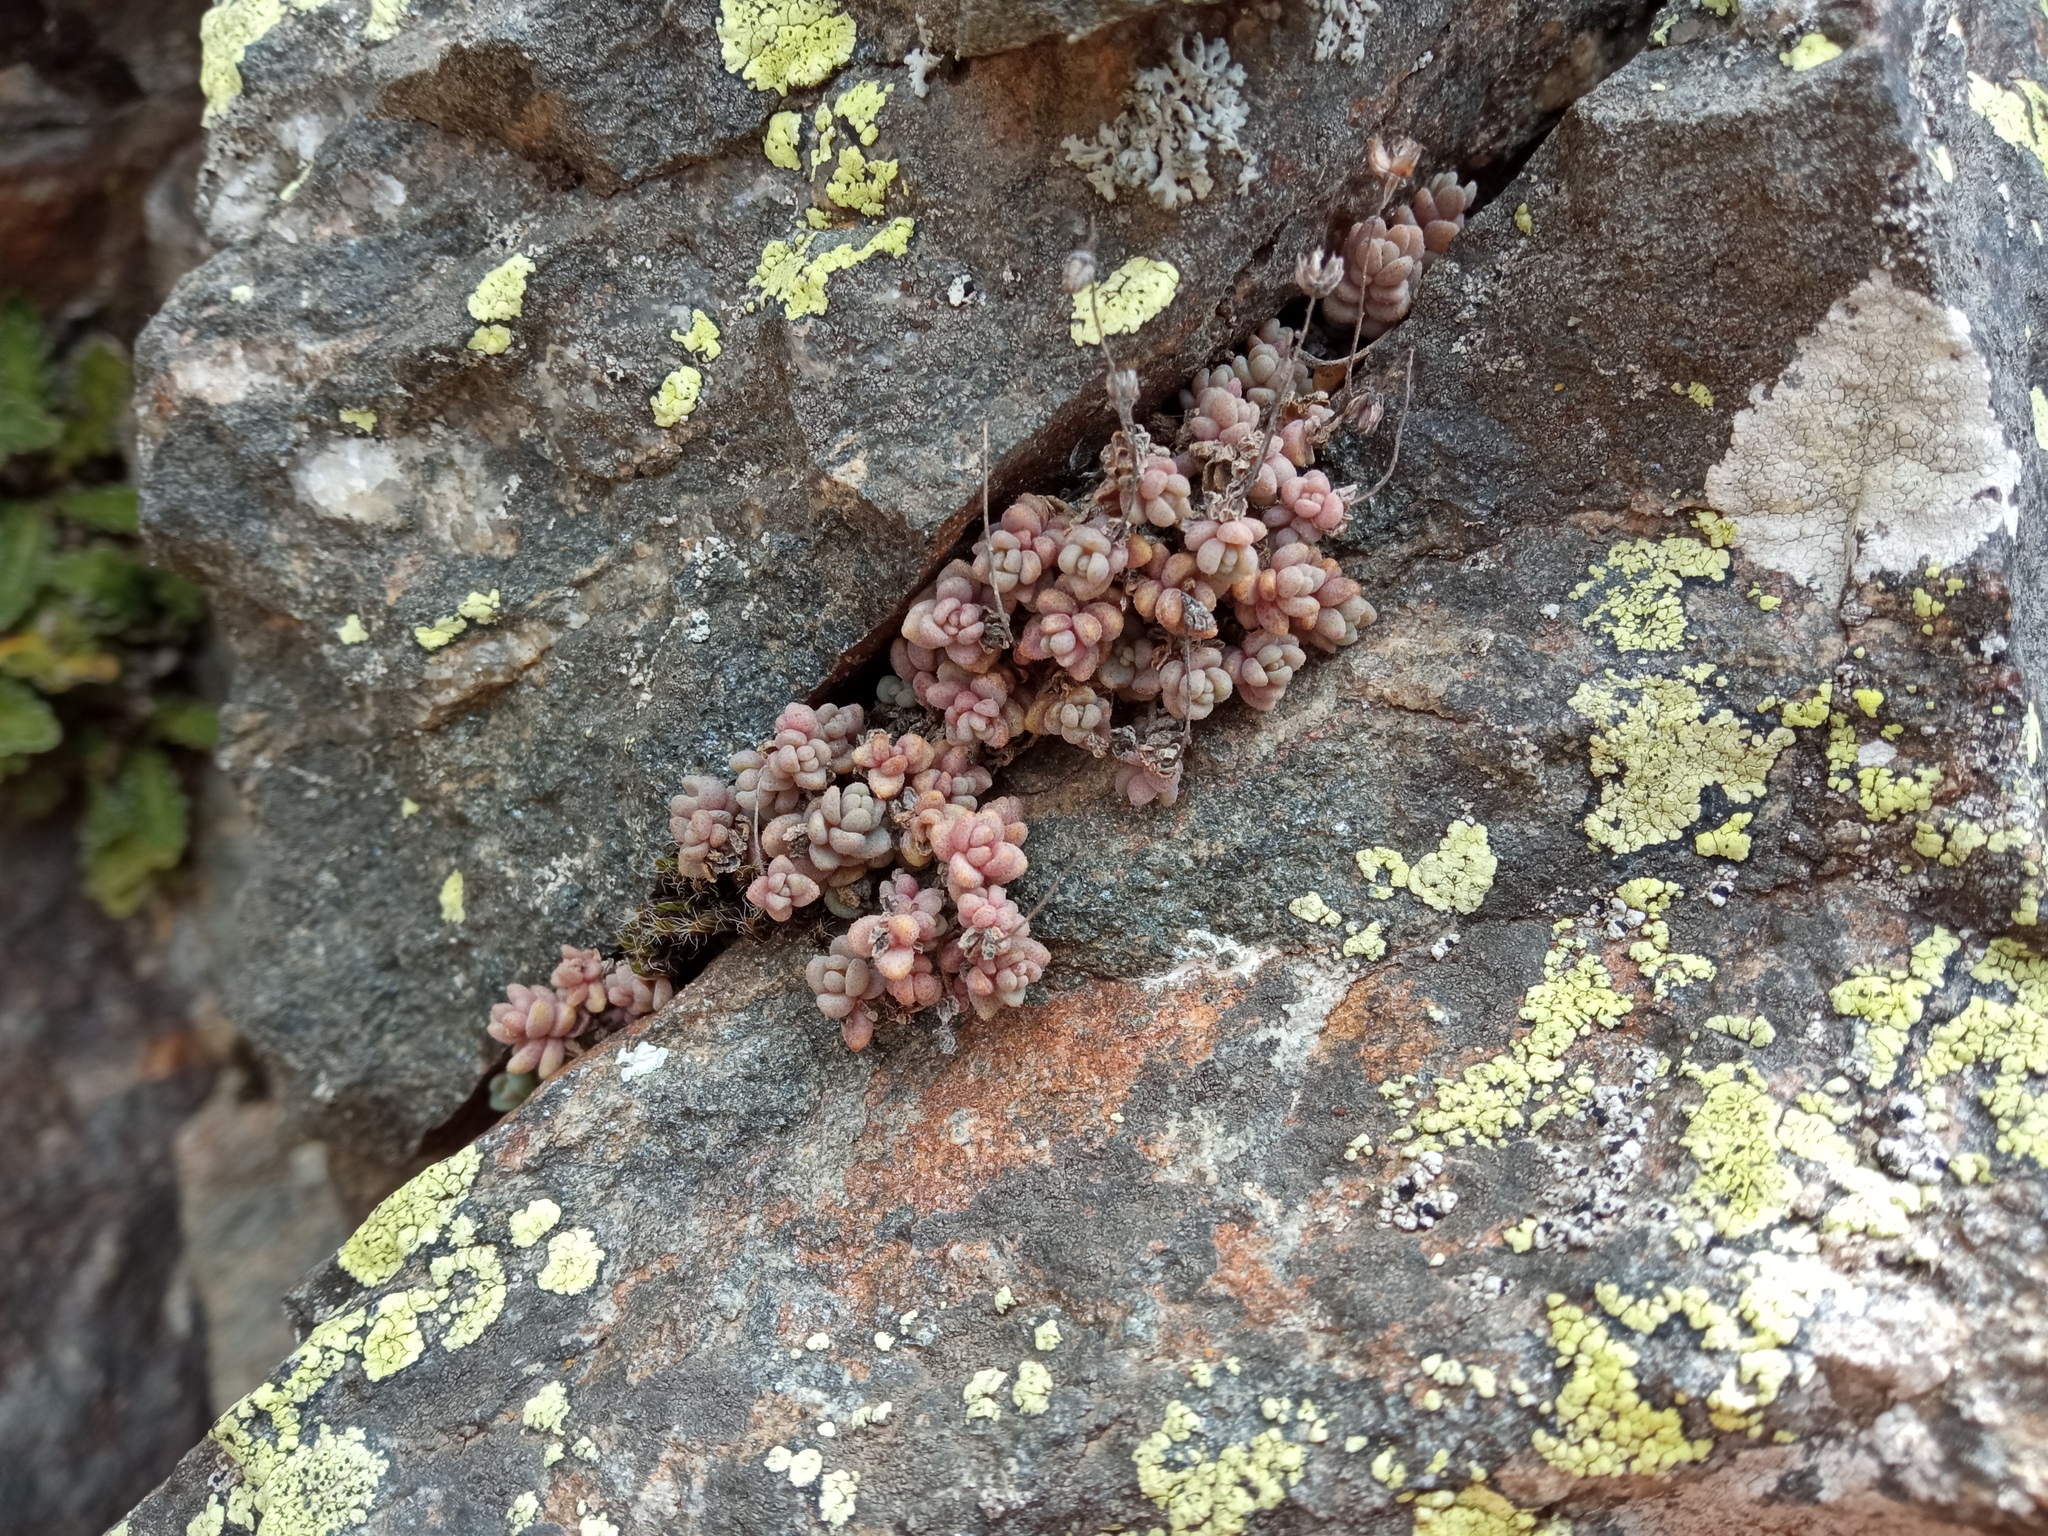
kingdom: Plantae
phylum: Tracheophyta
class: Magnoliopsida
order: Saxifragales
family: Crassulaceae
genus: Sedum
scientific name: Sedum dasyphyllum
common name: Thick-leaf stonecrop
